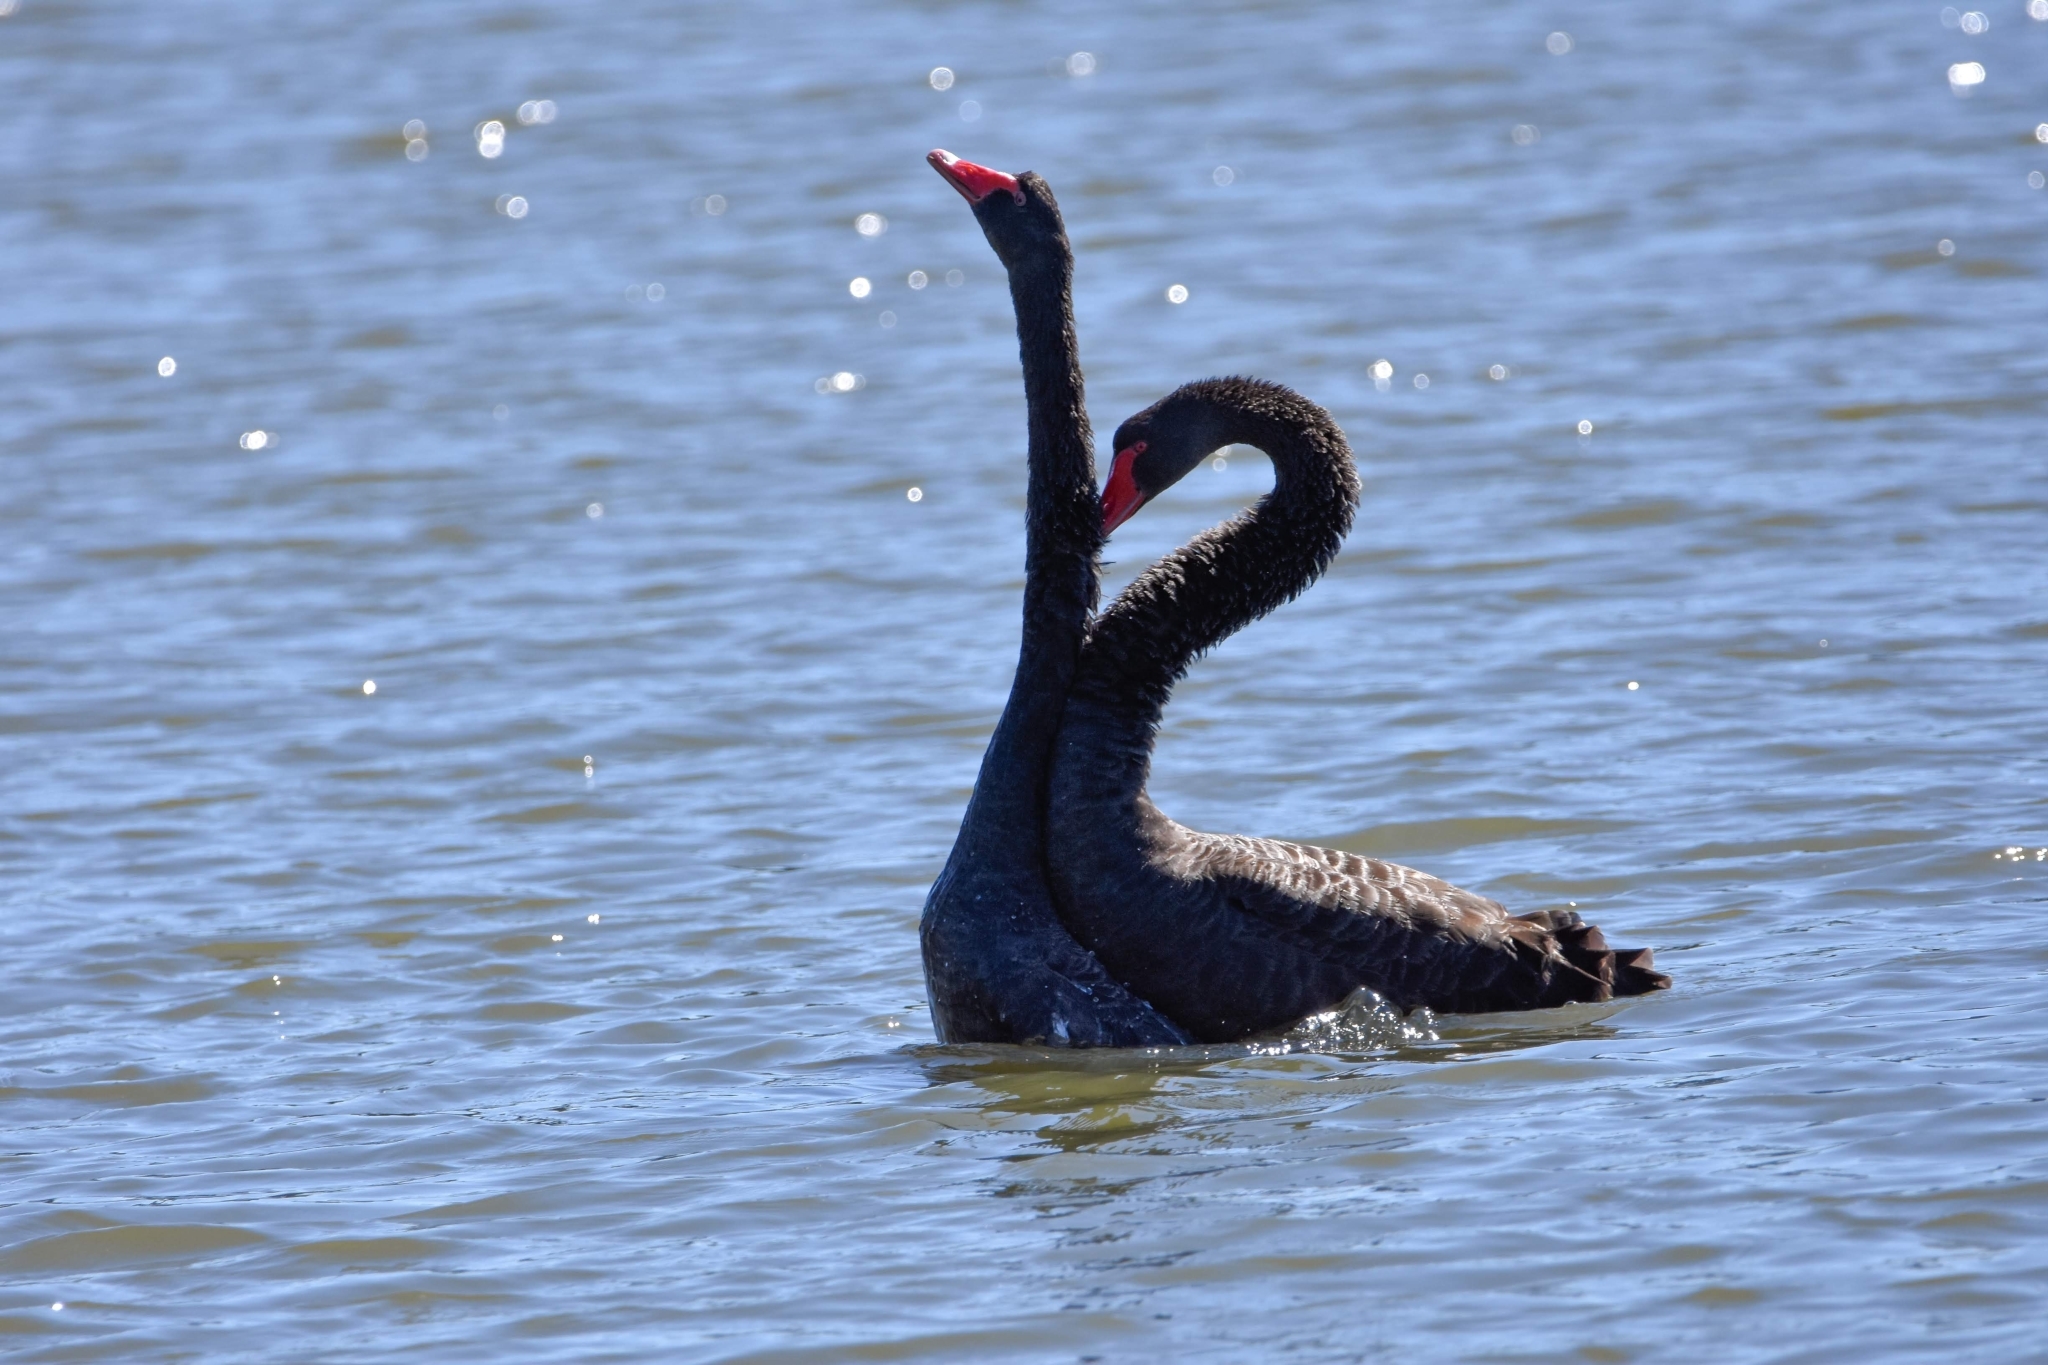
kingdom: Animalia
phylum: Chordata
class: Aves
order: Anseriformes
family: Anatidae
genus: Cygnus
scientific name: Cygnus atratus
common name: Black swan
